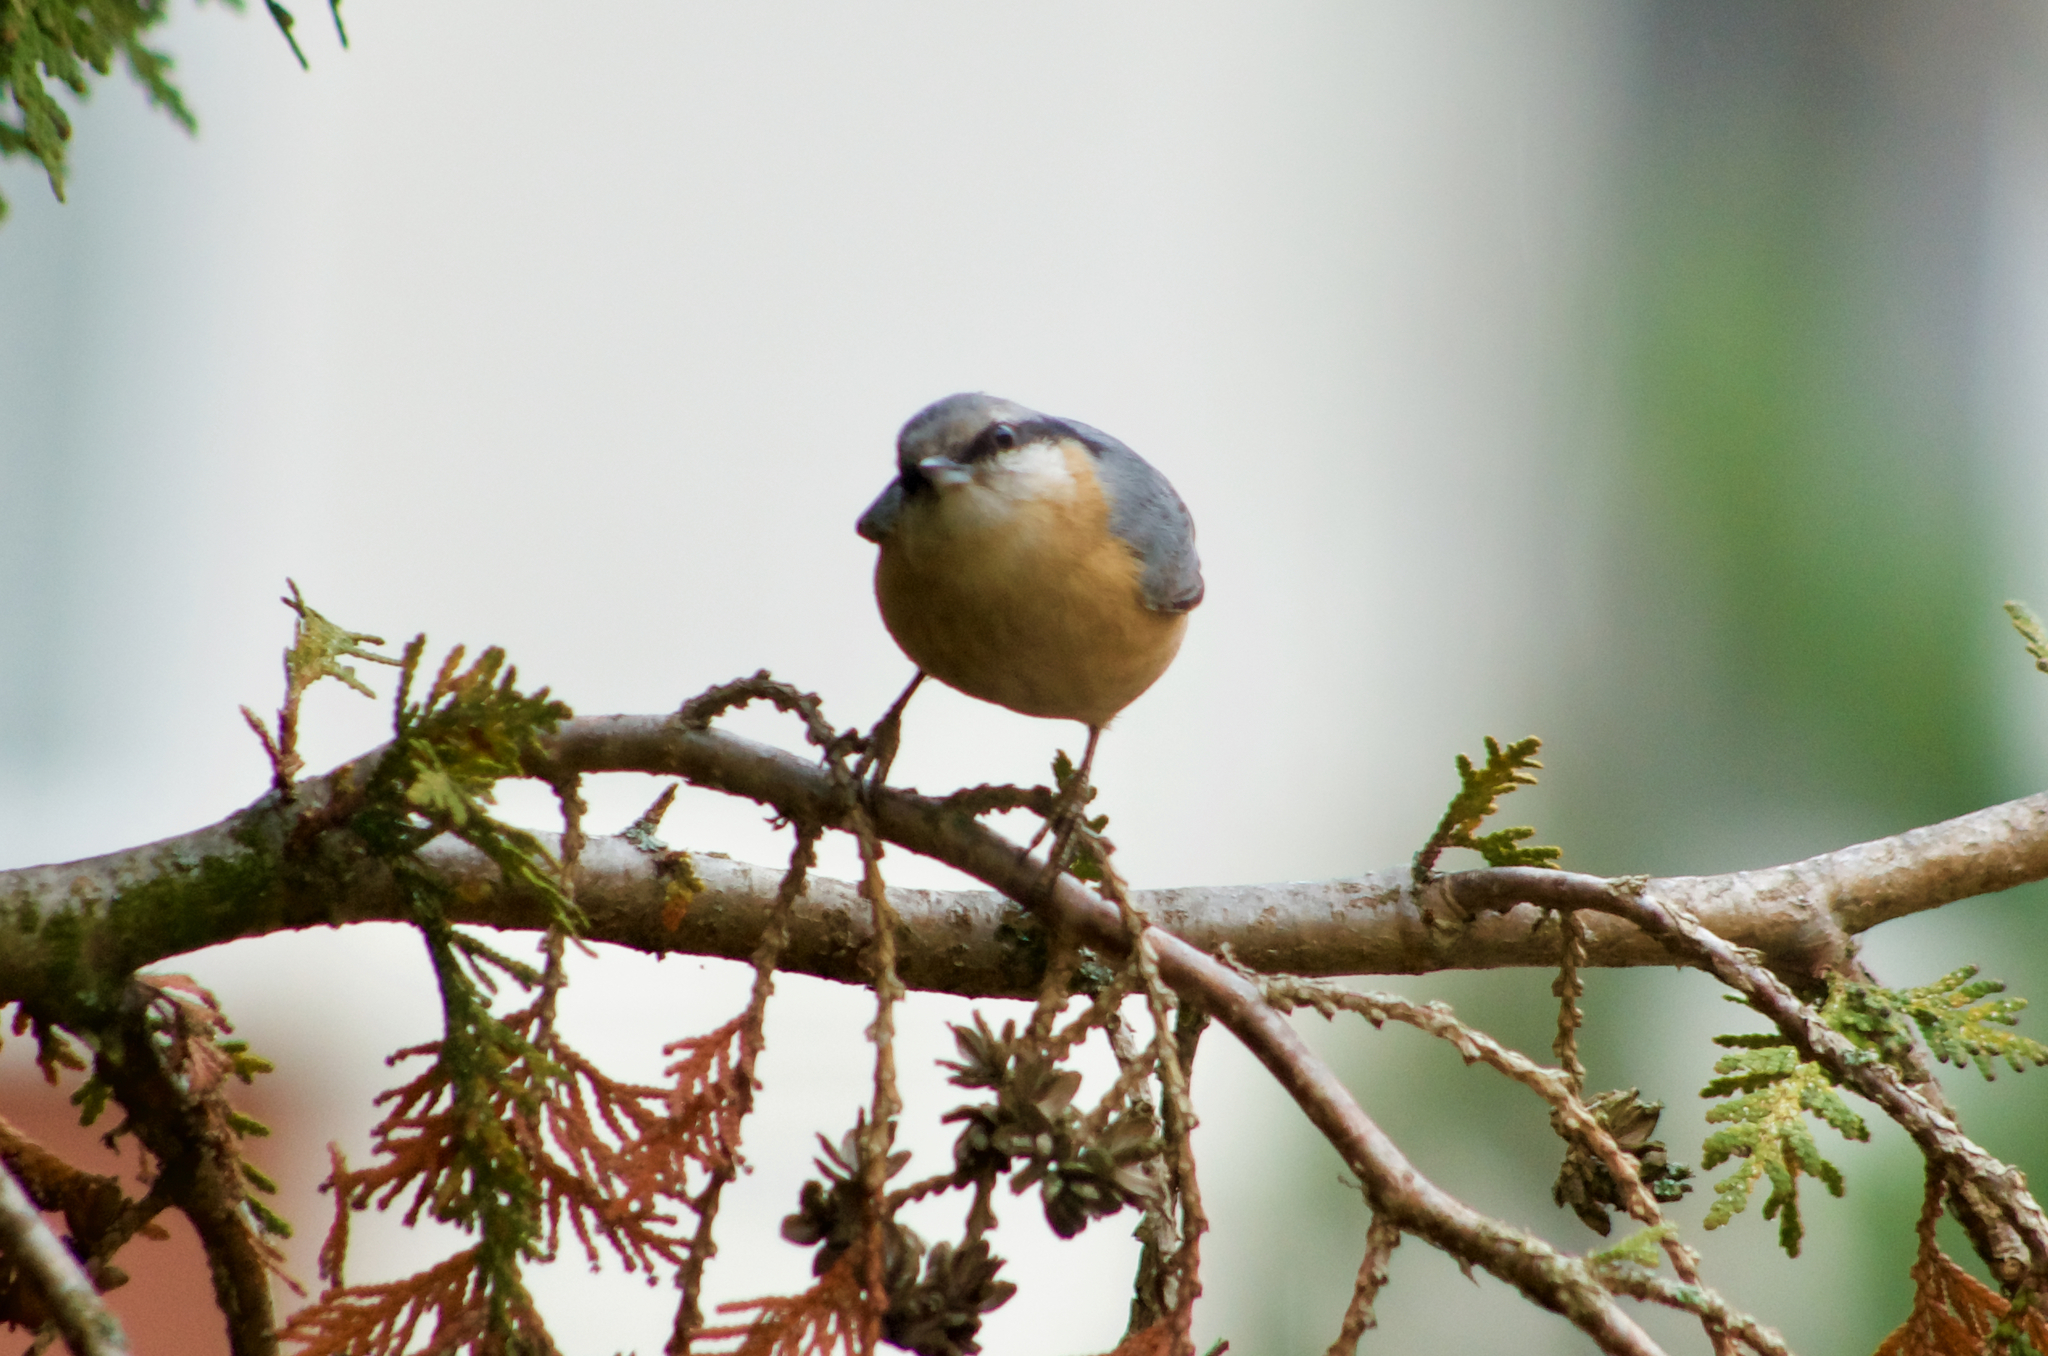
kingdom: Animalia
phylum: Chordata
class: Aves
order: Passeriformes
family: Sittidae
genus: Sitta
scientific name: Sitta europaea
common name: Eurasian nuthatch
